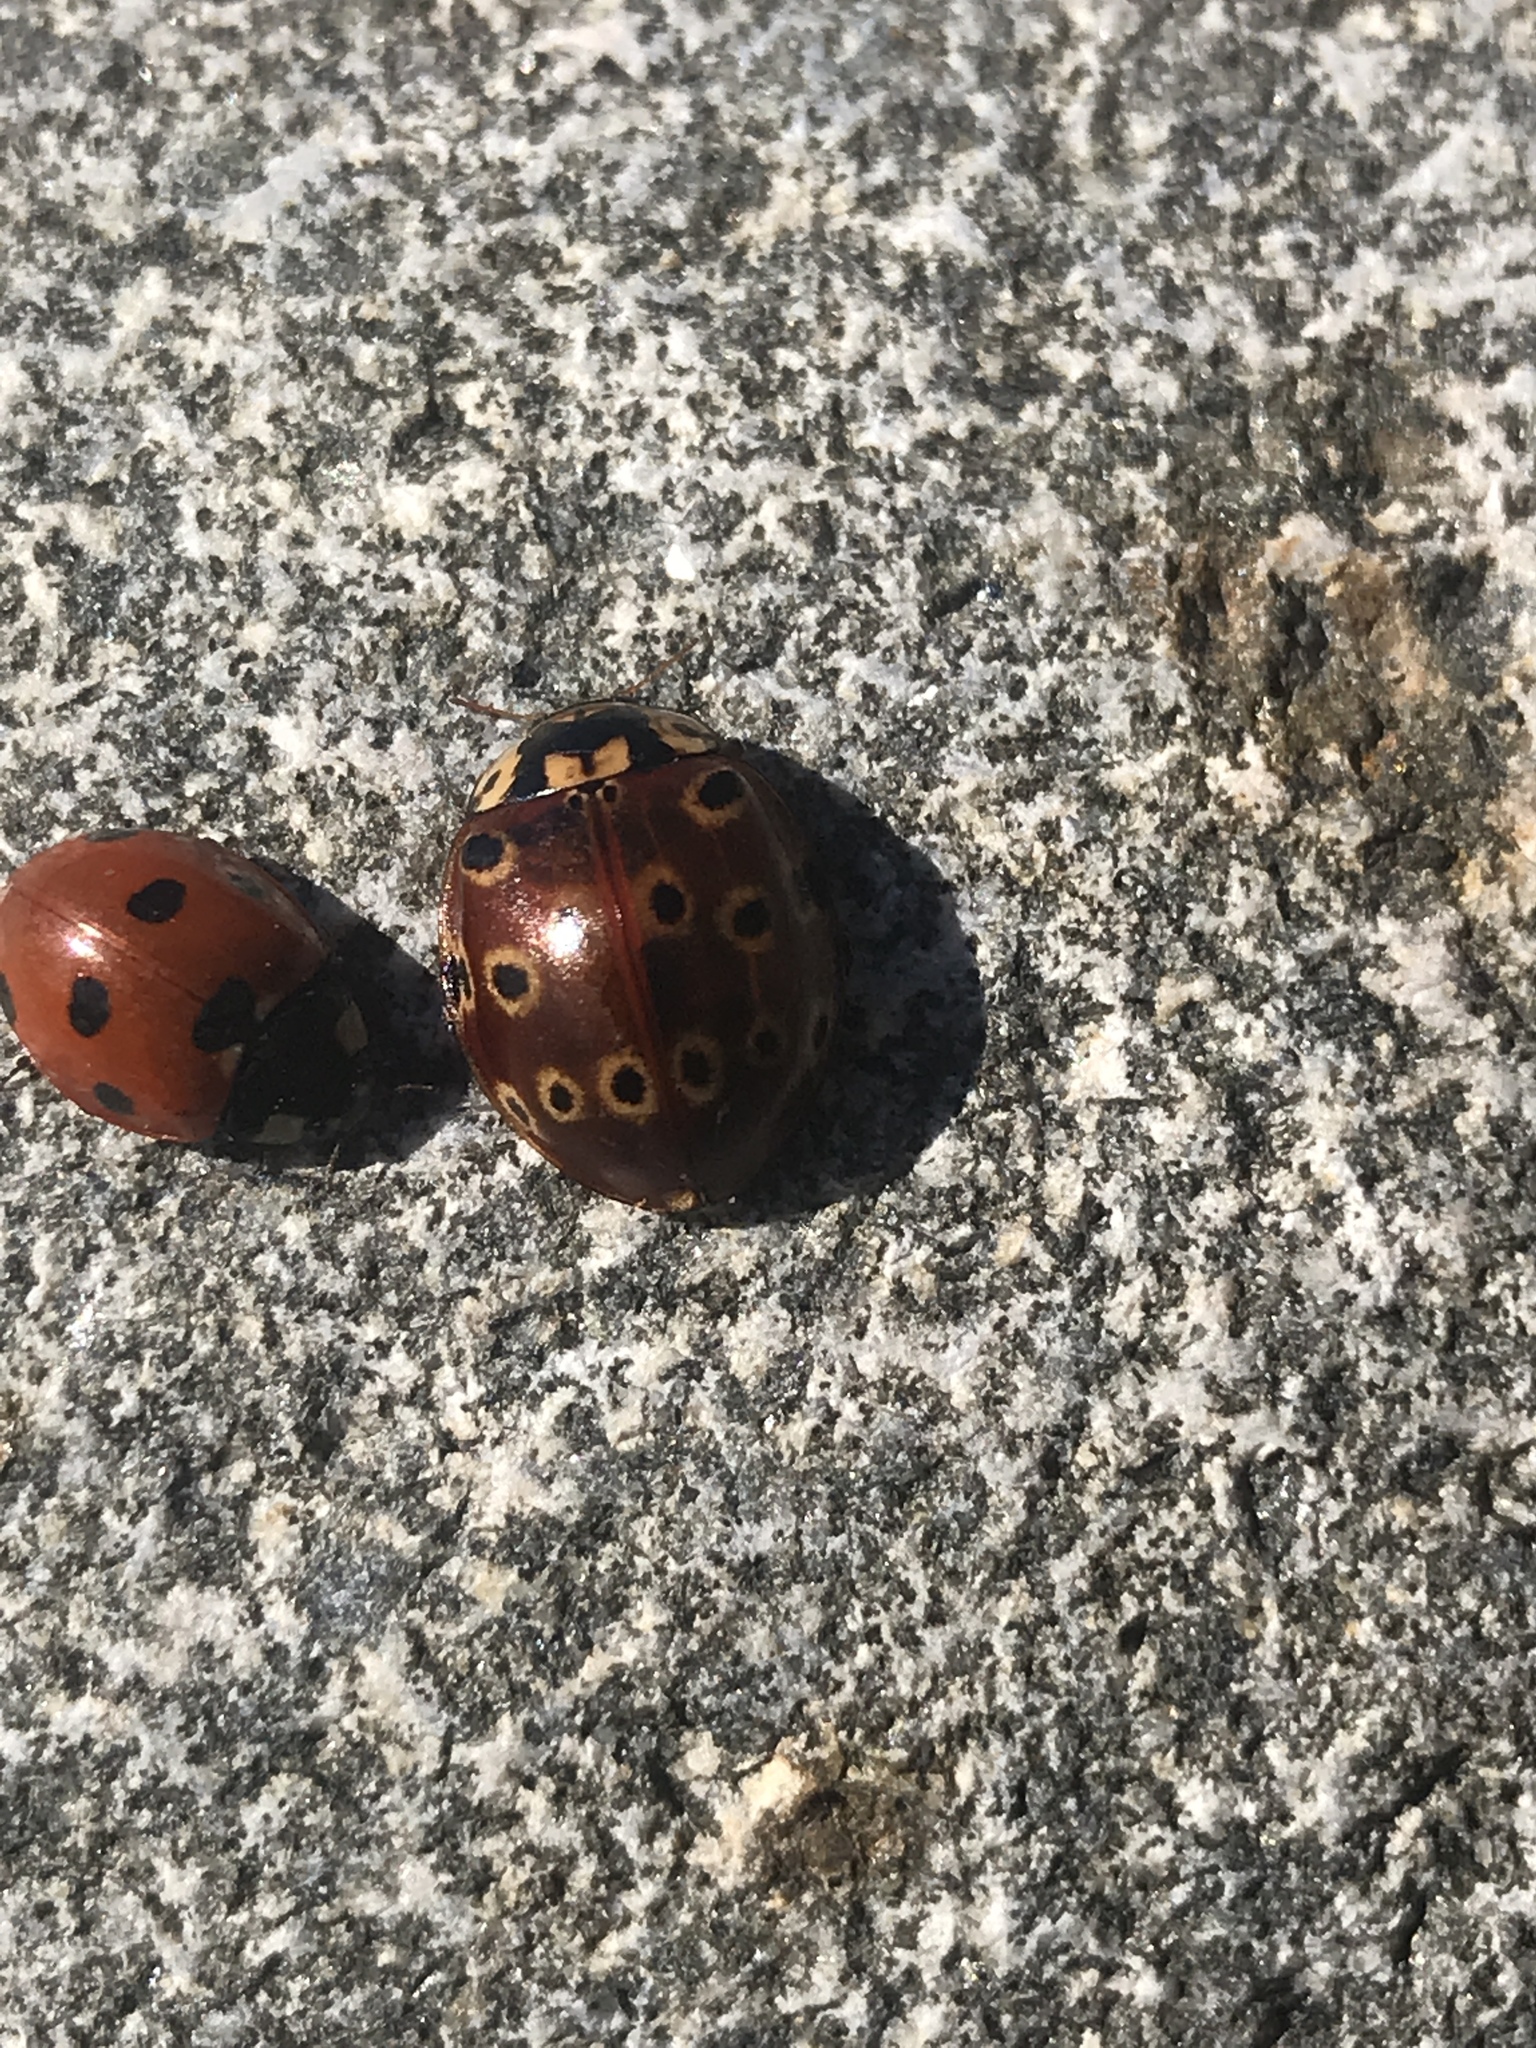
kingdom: Animalia
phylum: Arthropoda
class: Insecta
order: Coleoptera
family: Coccinellidae
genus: Anatis
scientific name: Anatis mali
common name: Eye-spotted lady beetle
